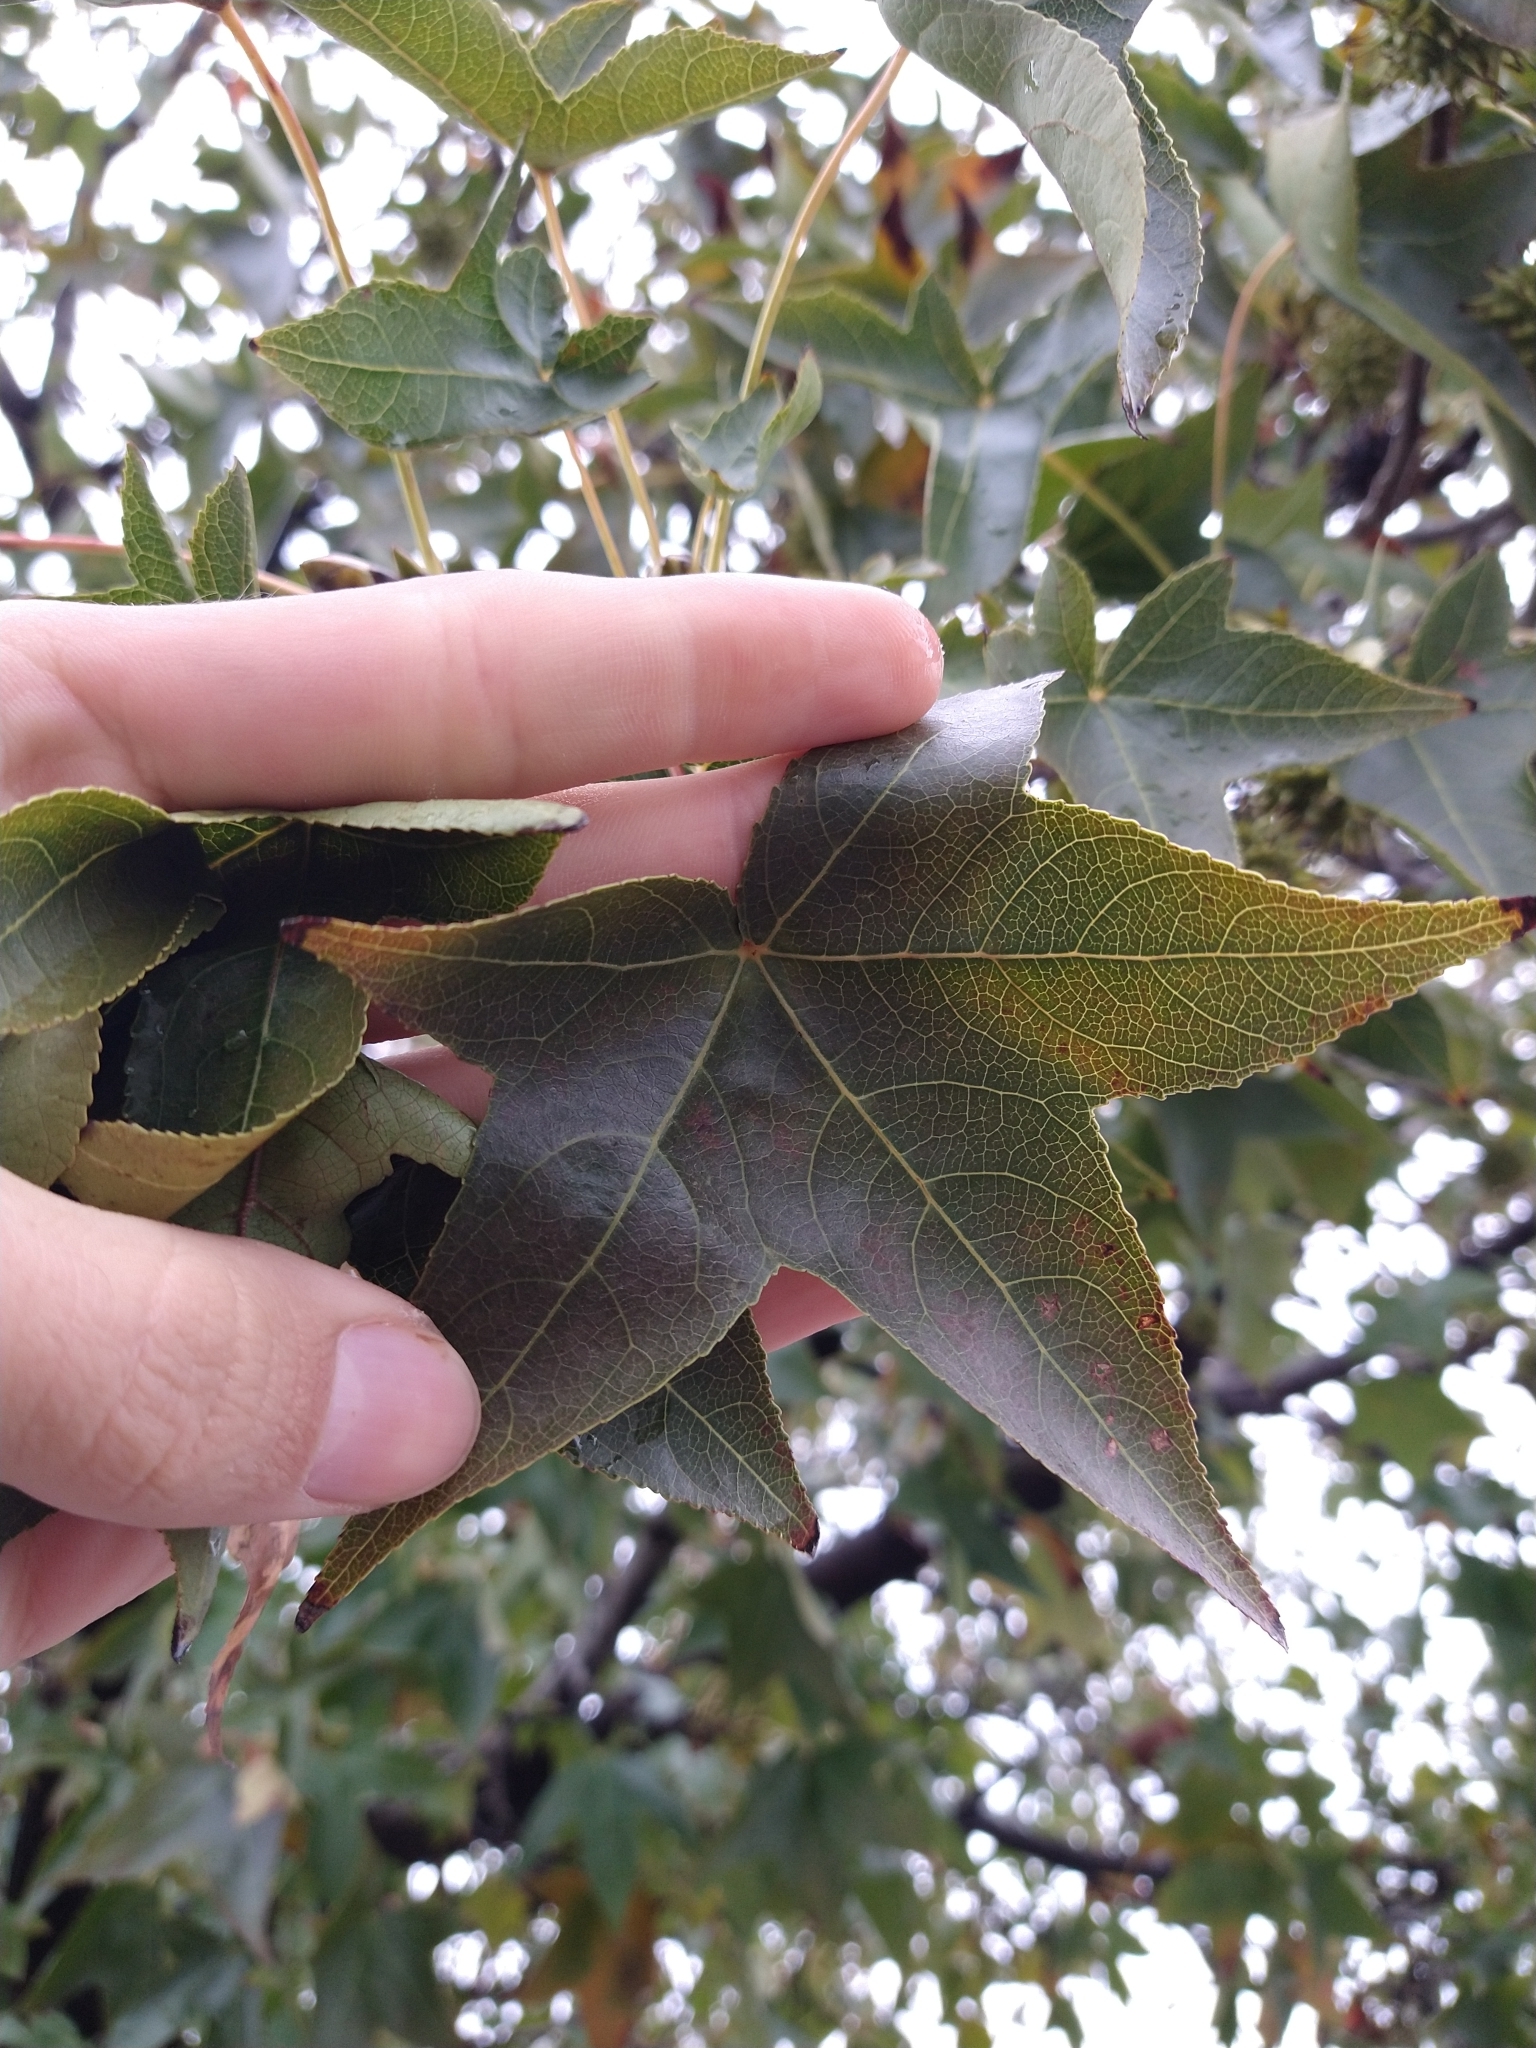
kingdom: Plantae
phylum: Tracheophyta
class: Magnoliopsida
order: Saxifragales
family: Altingiaceae
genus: Liquidambar
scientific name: Liquidambar styraciflua
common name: Sweet gum
